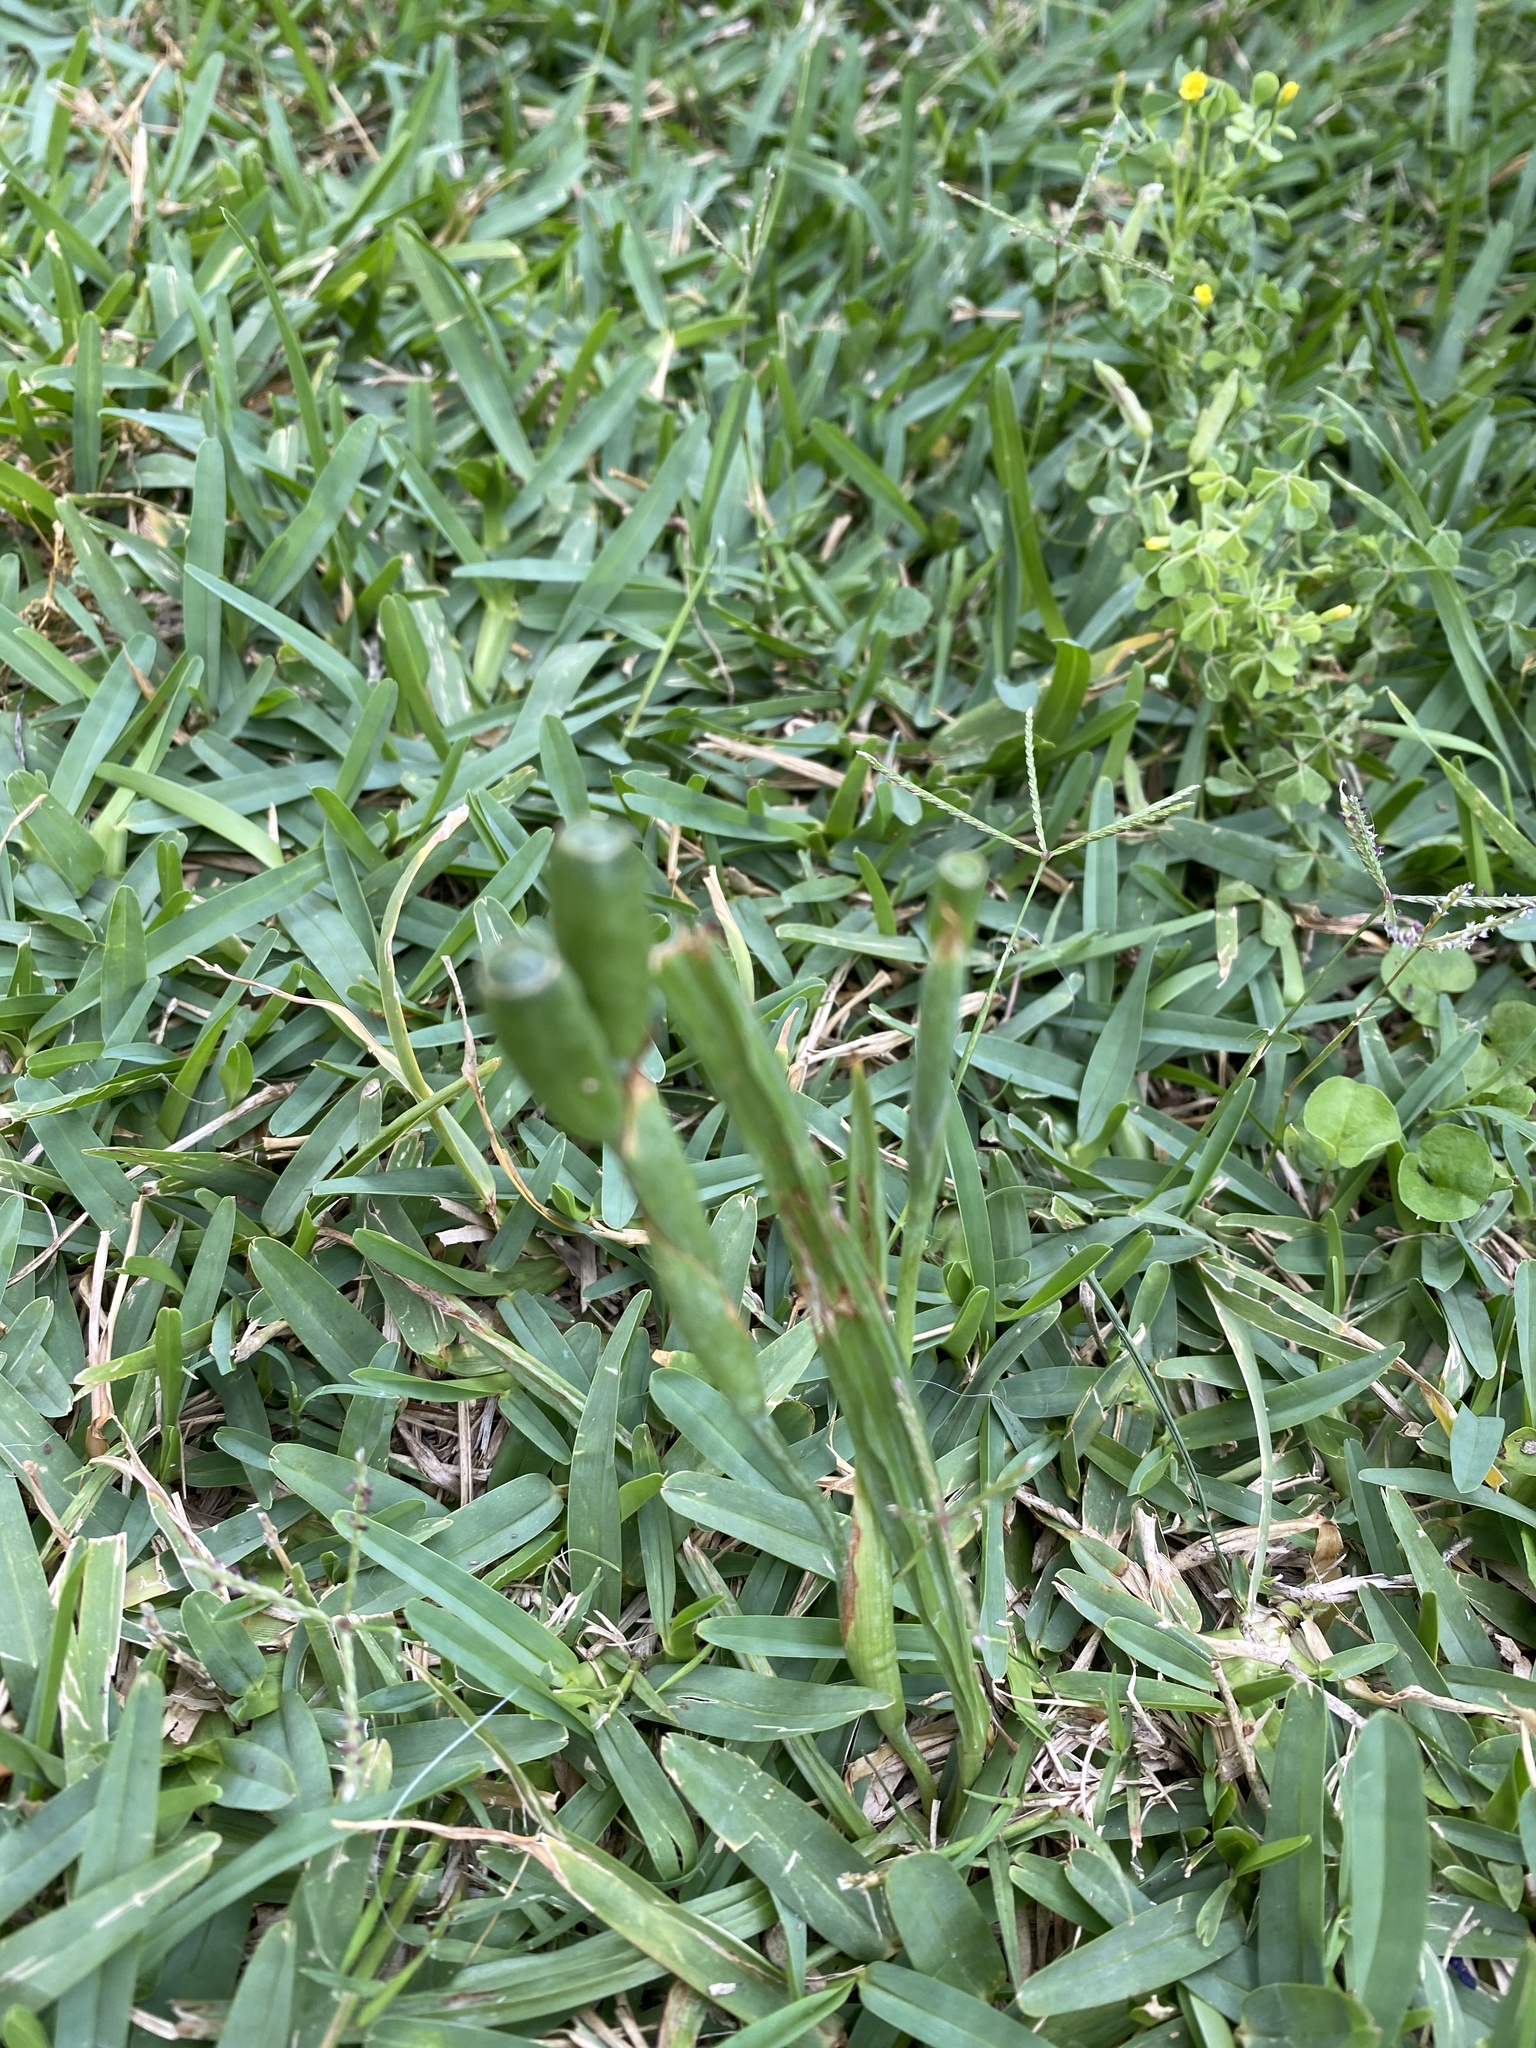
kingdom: Plantae
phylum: Tracheophyta
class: Liliopsida
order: Asparagales
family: Iridaceae
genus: Herbertia
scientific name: Herbertia lahue
